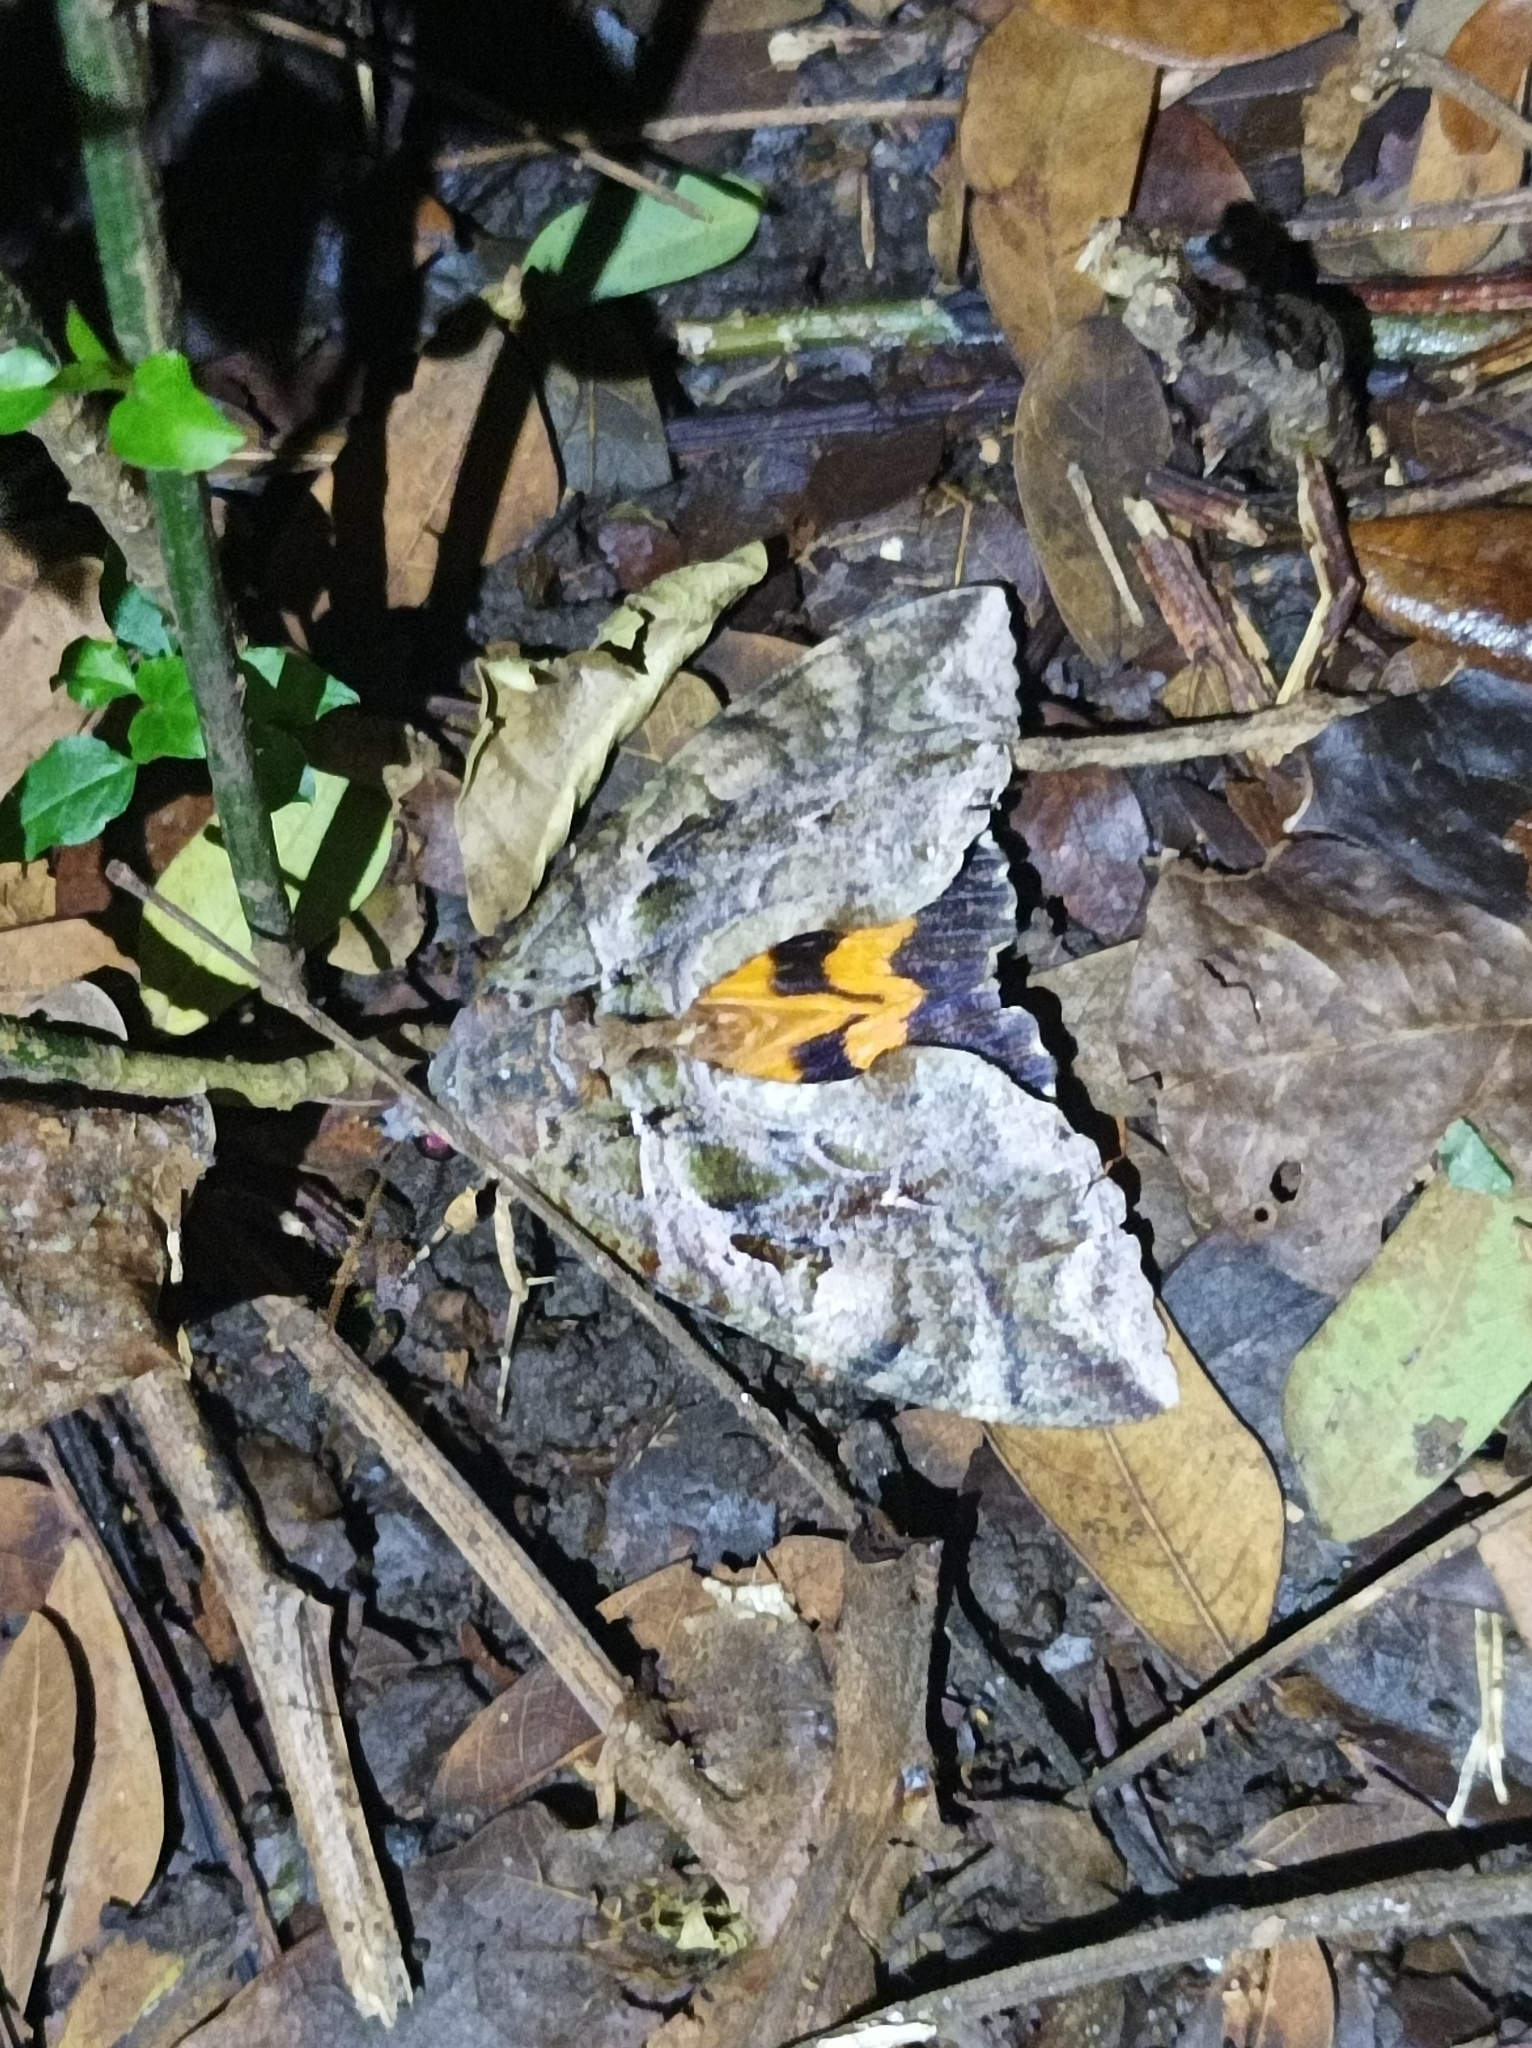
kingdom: Animalia
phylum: Arthropoda
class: Insecta
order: Lepidoptera
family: Erebidae
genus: Eudocima
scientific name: Eudocima phalonia
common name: Wasp
